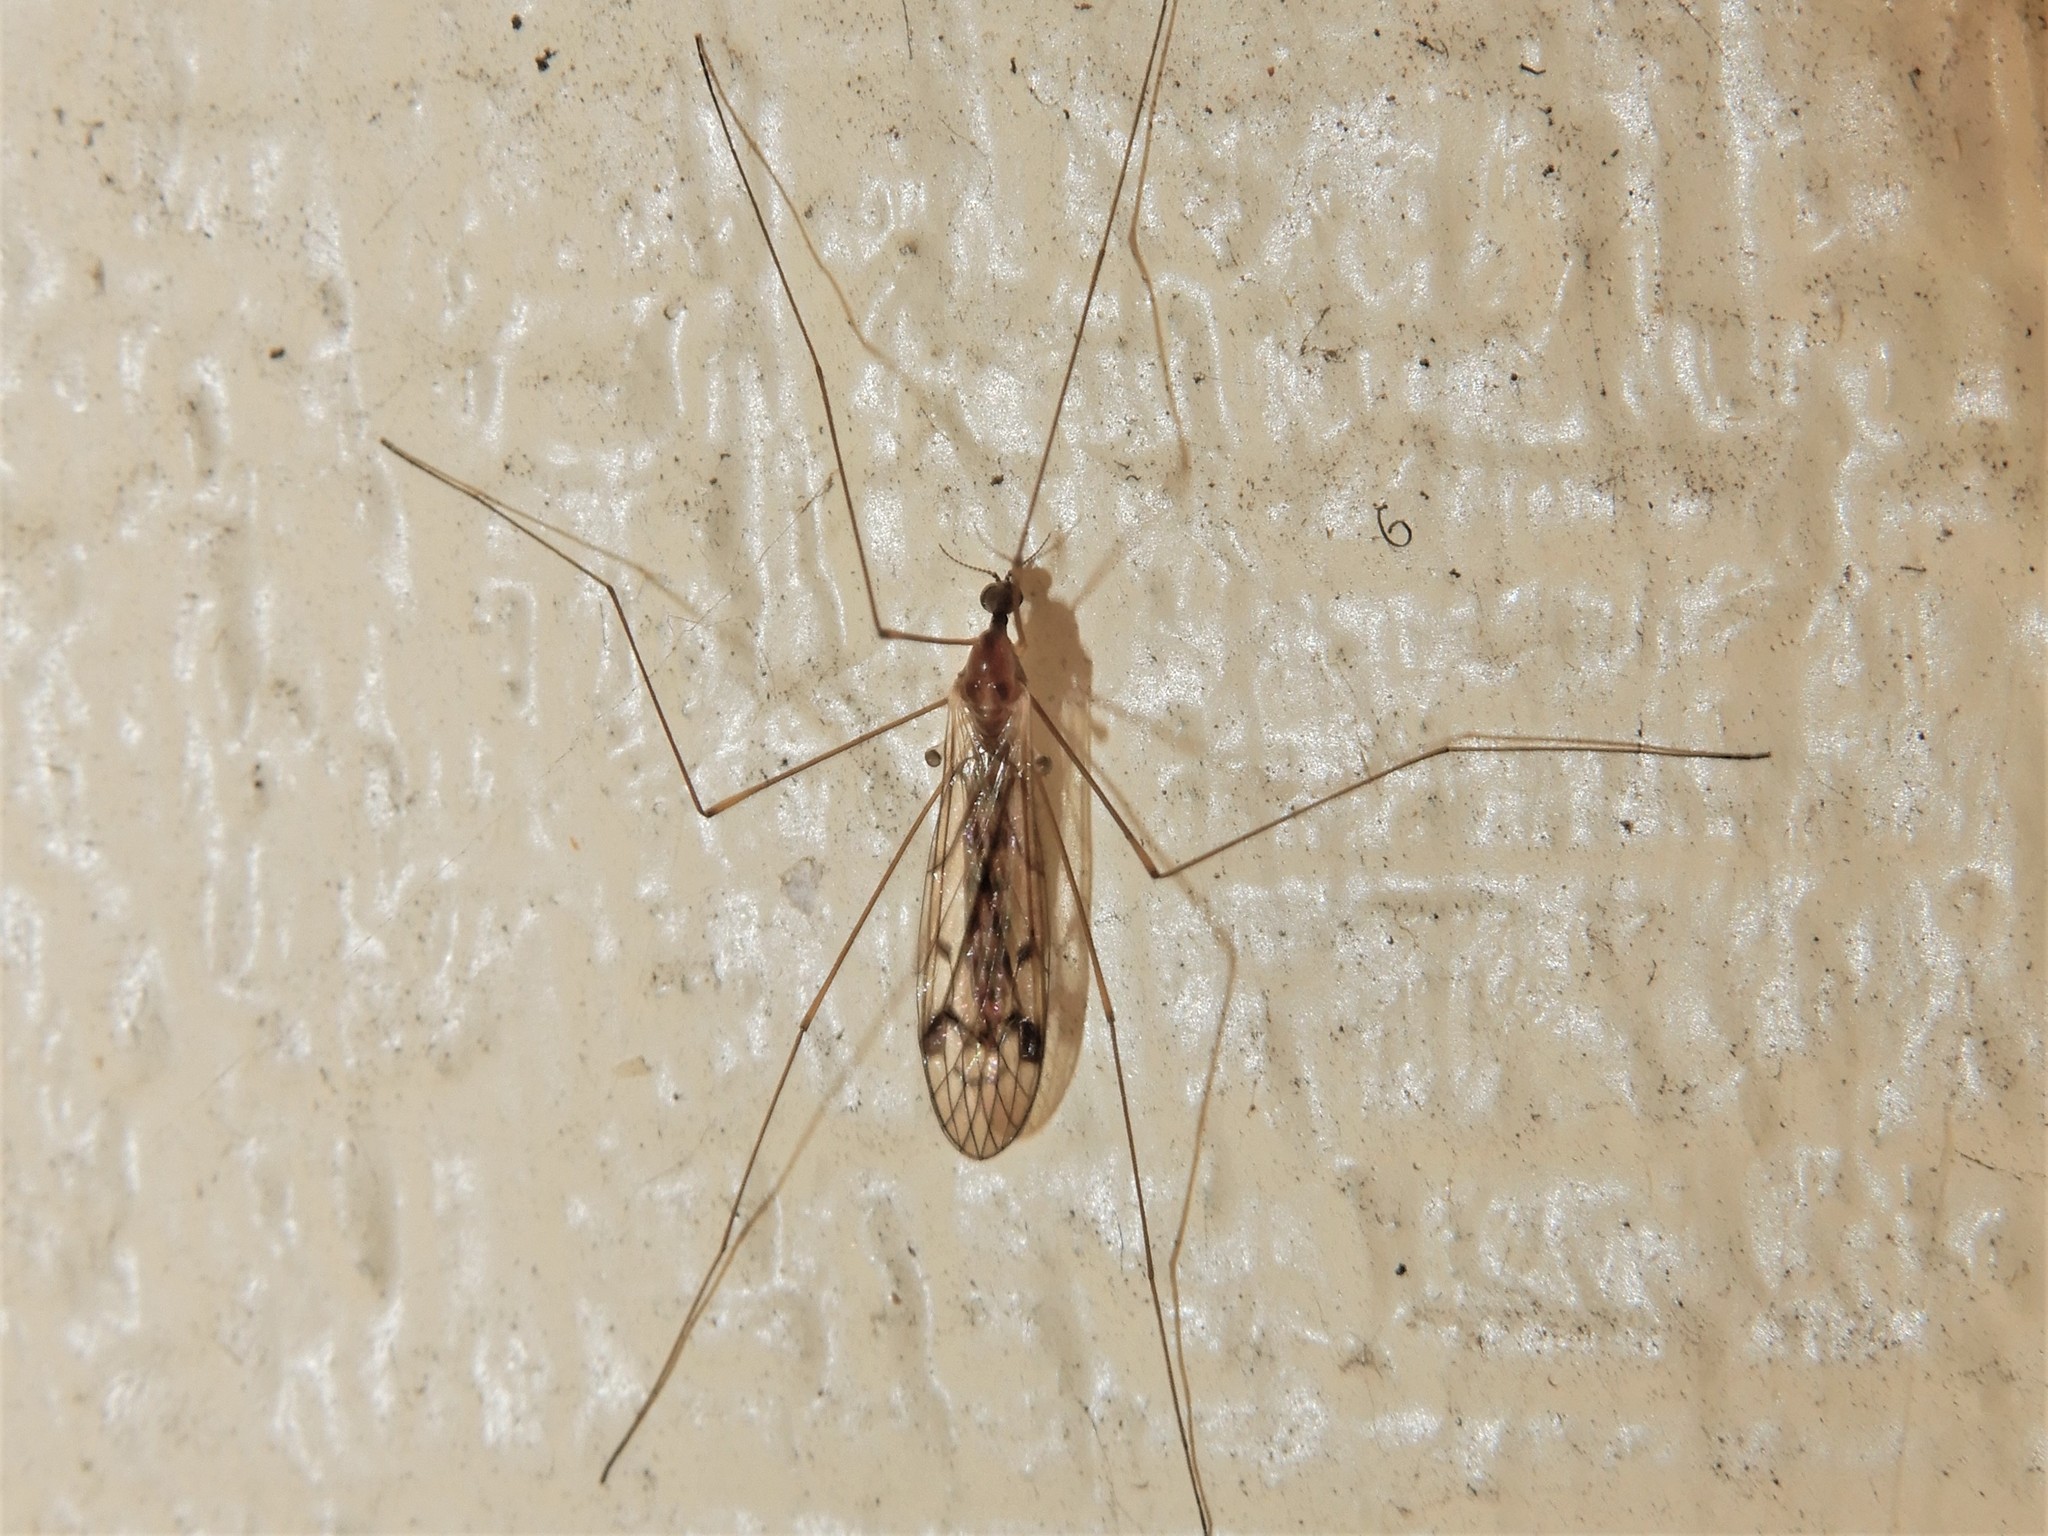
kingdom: Animalia
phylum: Arthropoda
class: Insecta
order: Diptera
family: Limoniidae
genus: Dicranomyia
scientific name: Dicranomyia crassipes
